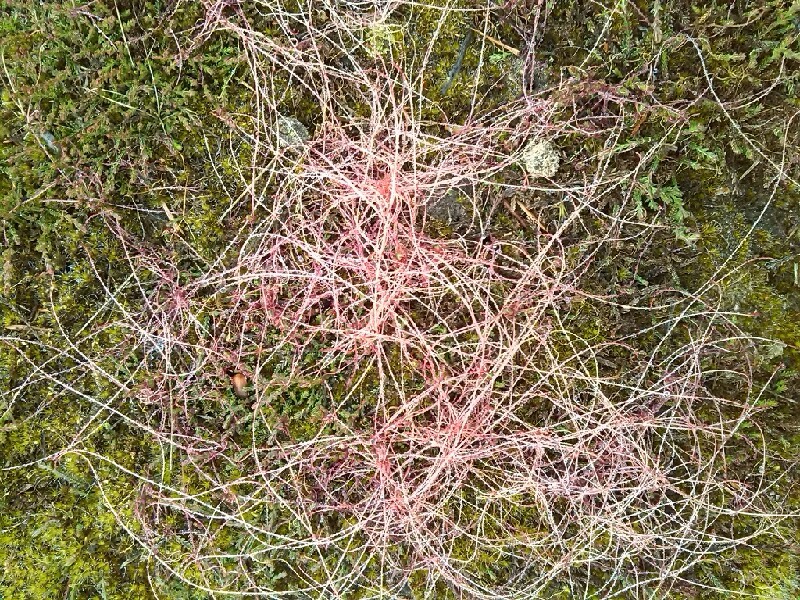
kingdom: Plantae
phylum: Tracheophyta
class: Magnoliopsida
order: Solanales
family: Convolvulaceae
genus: Cuscuta
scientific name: Cuscuta epithymum
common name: Clover dodder
